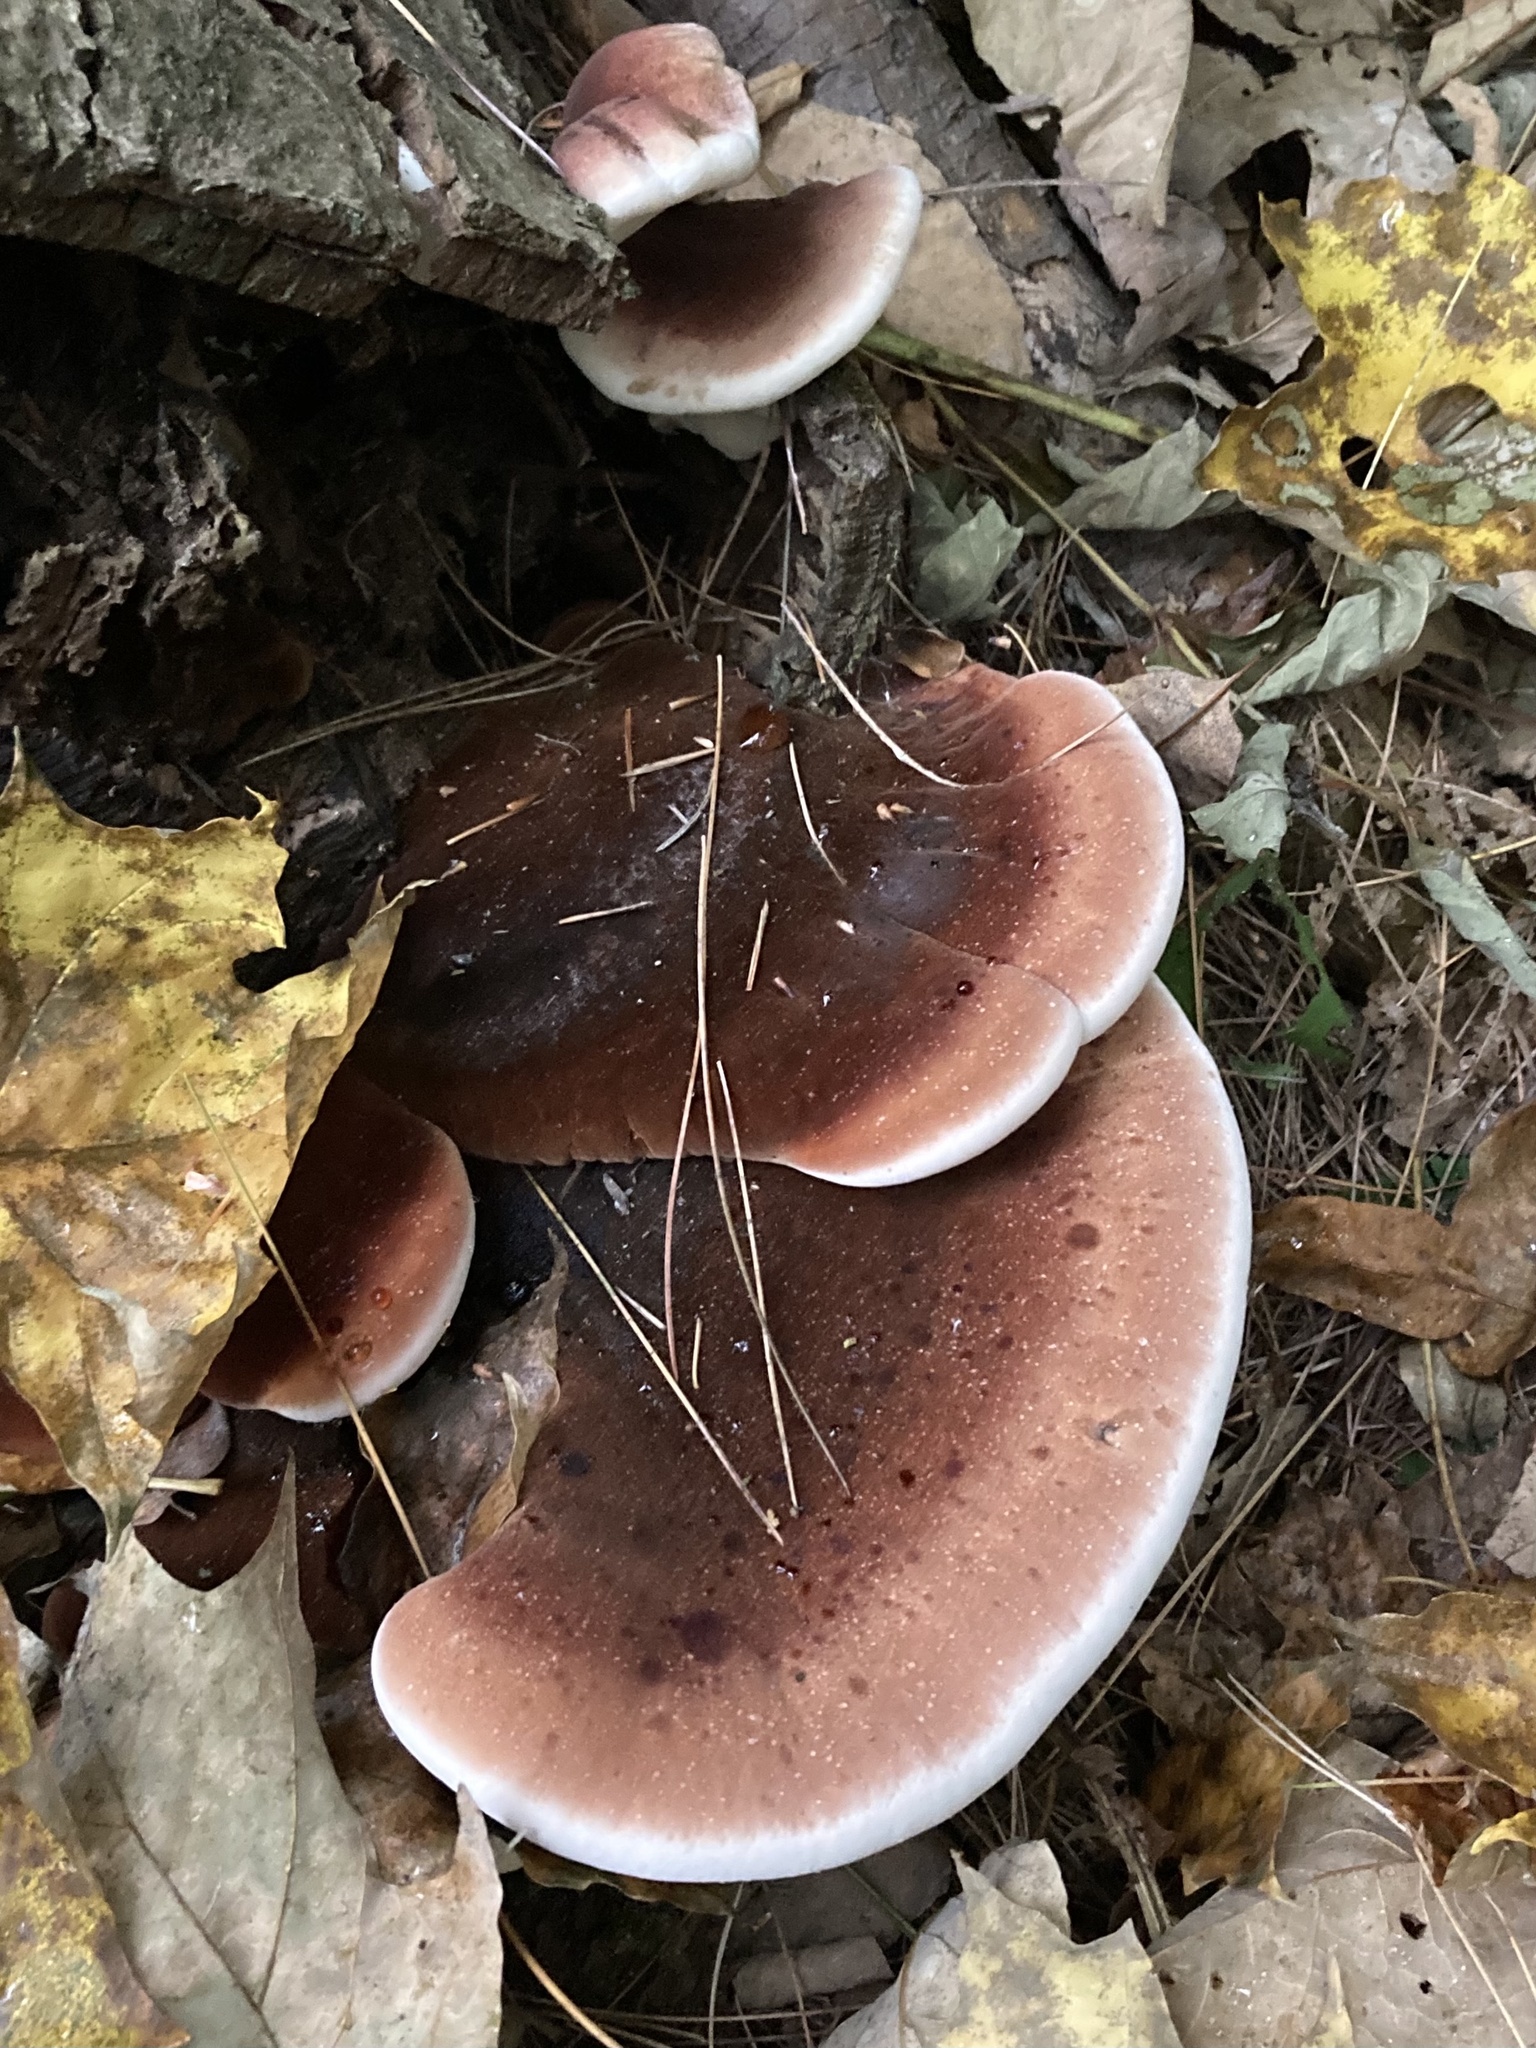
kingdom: Fungi
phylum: Basidiomycota
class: Agaricomycetes
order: Polyporales
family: Ischnodermataceae
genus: Ischnoderma
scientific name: Ischnoderma resinosum
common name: Resinous polypore
